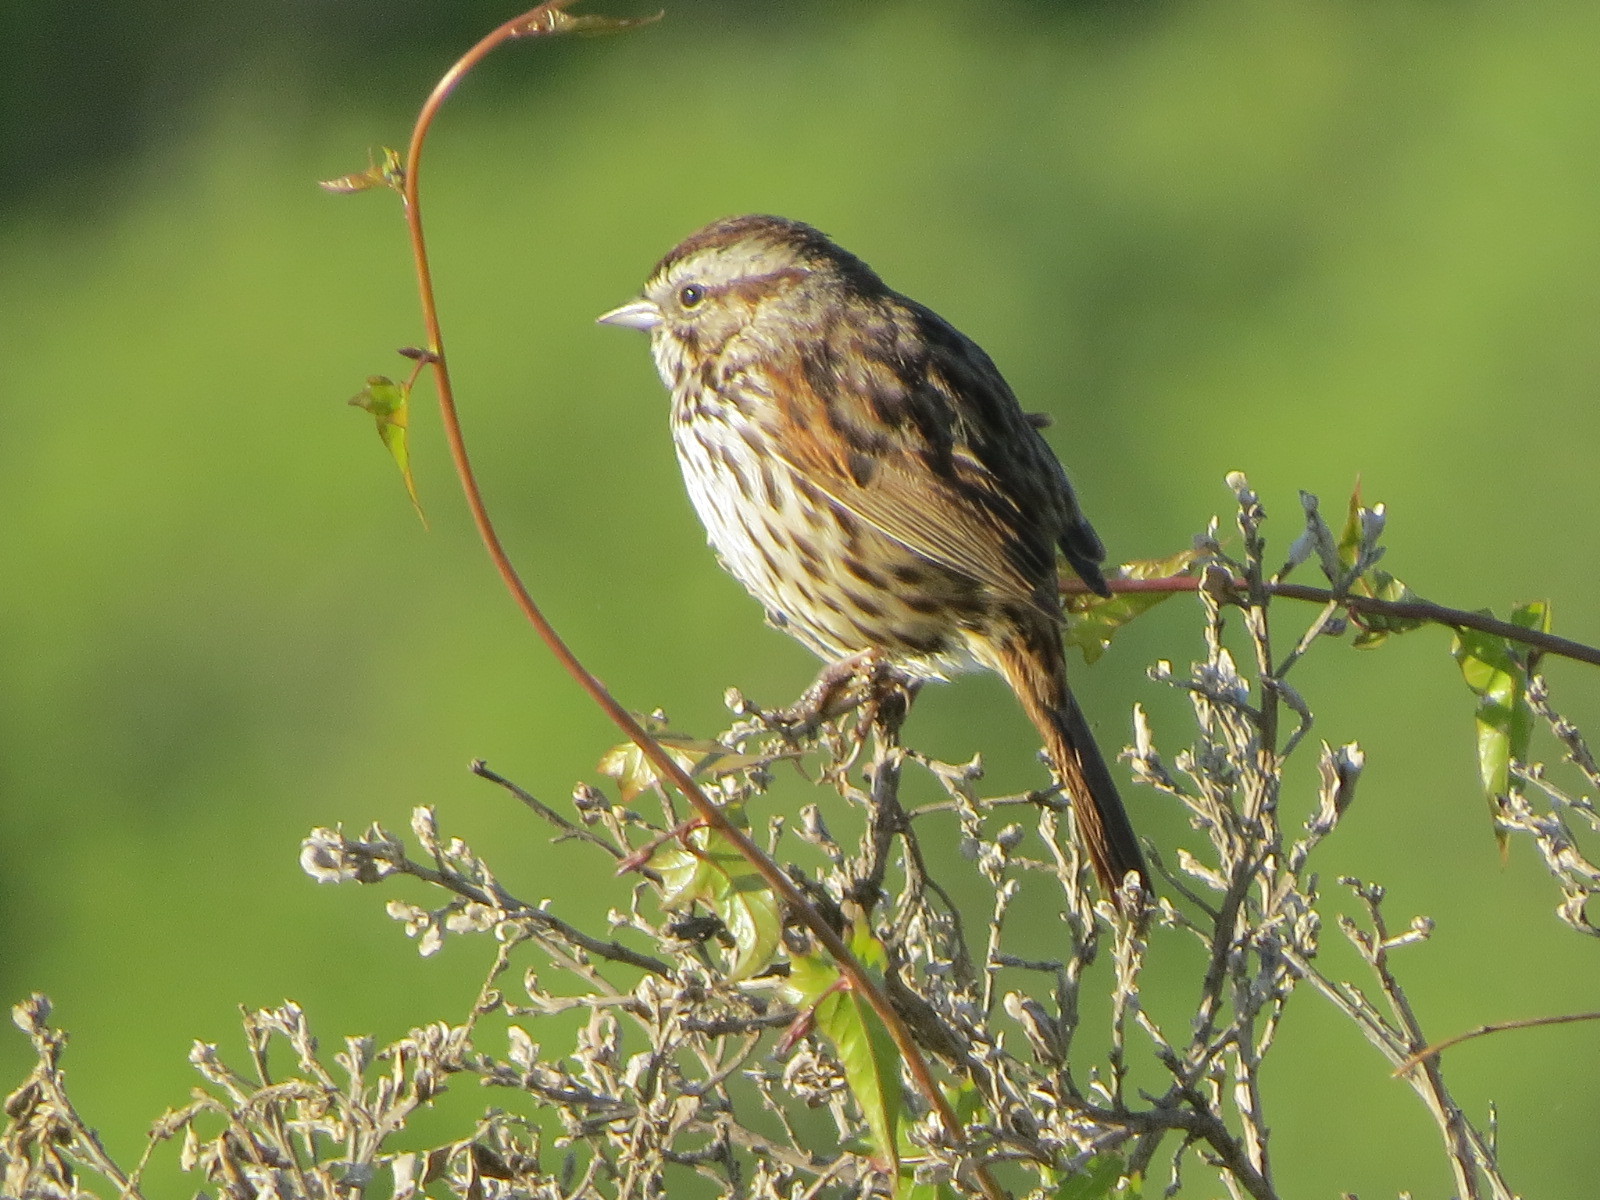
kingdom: Animalia
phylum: Chordata
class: Aves
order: Passeriformes
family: Passerellidae
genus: Melospiza
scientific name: Melospiza melodia
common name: Song sparrow
